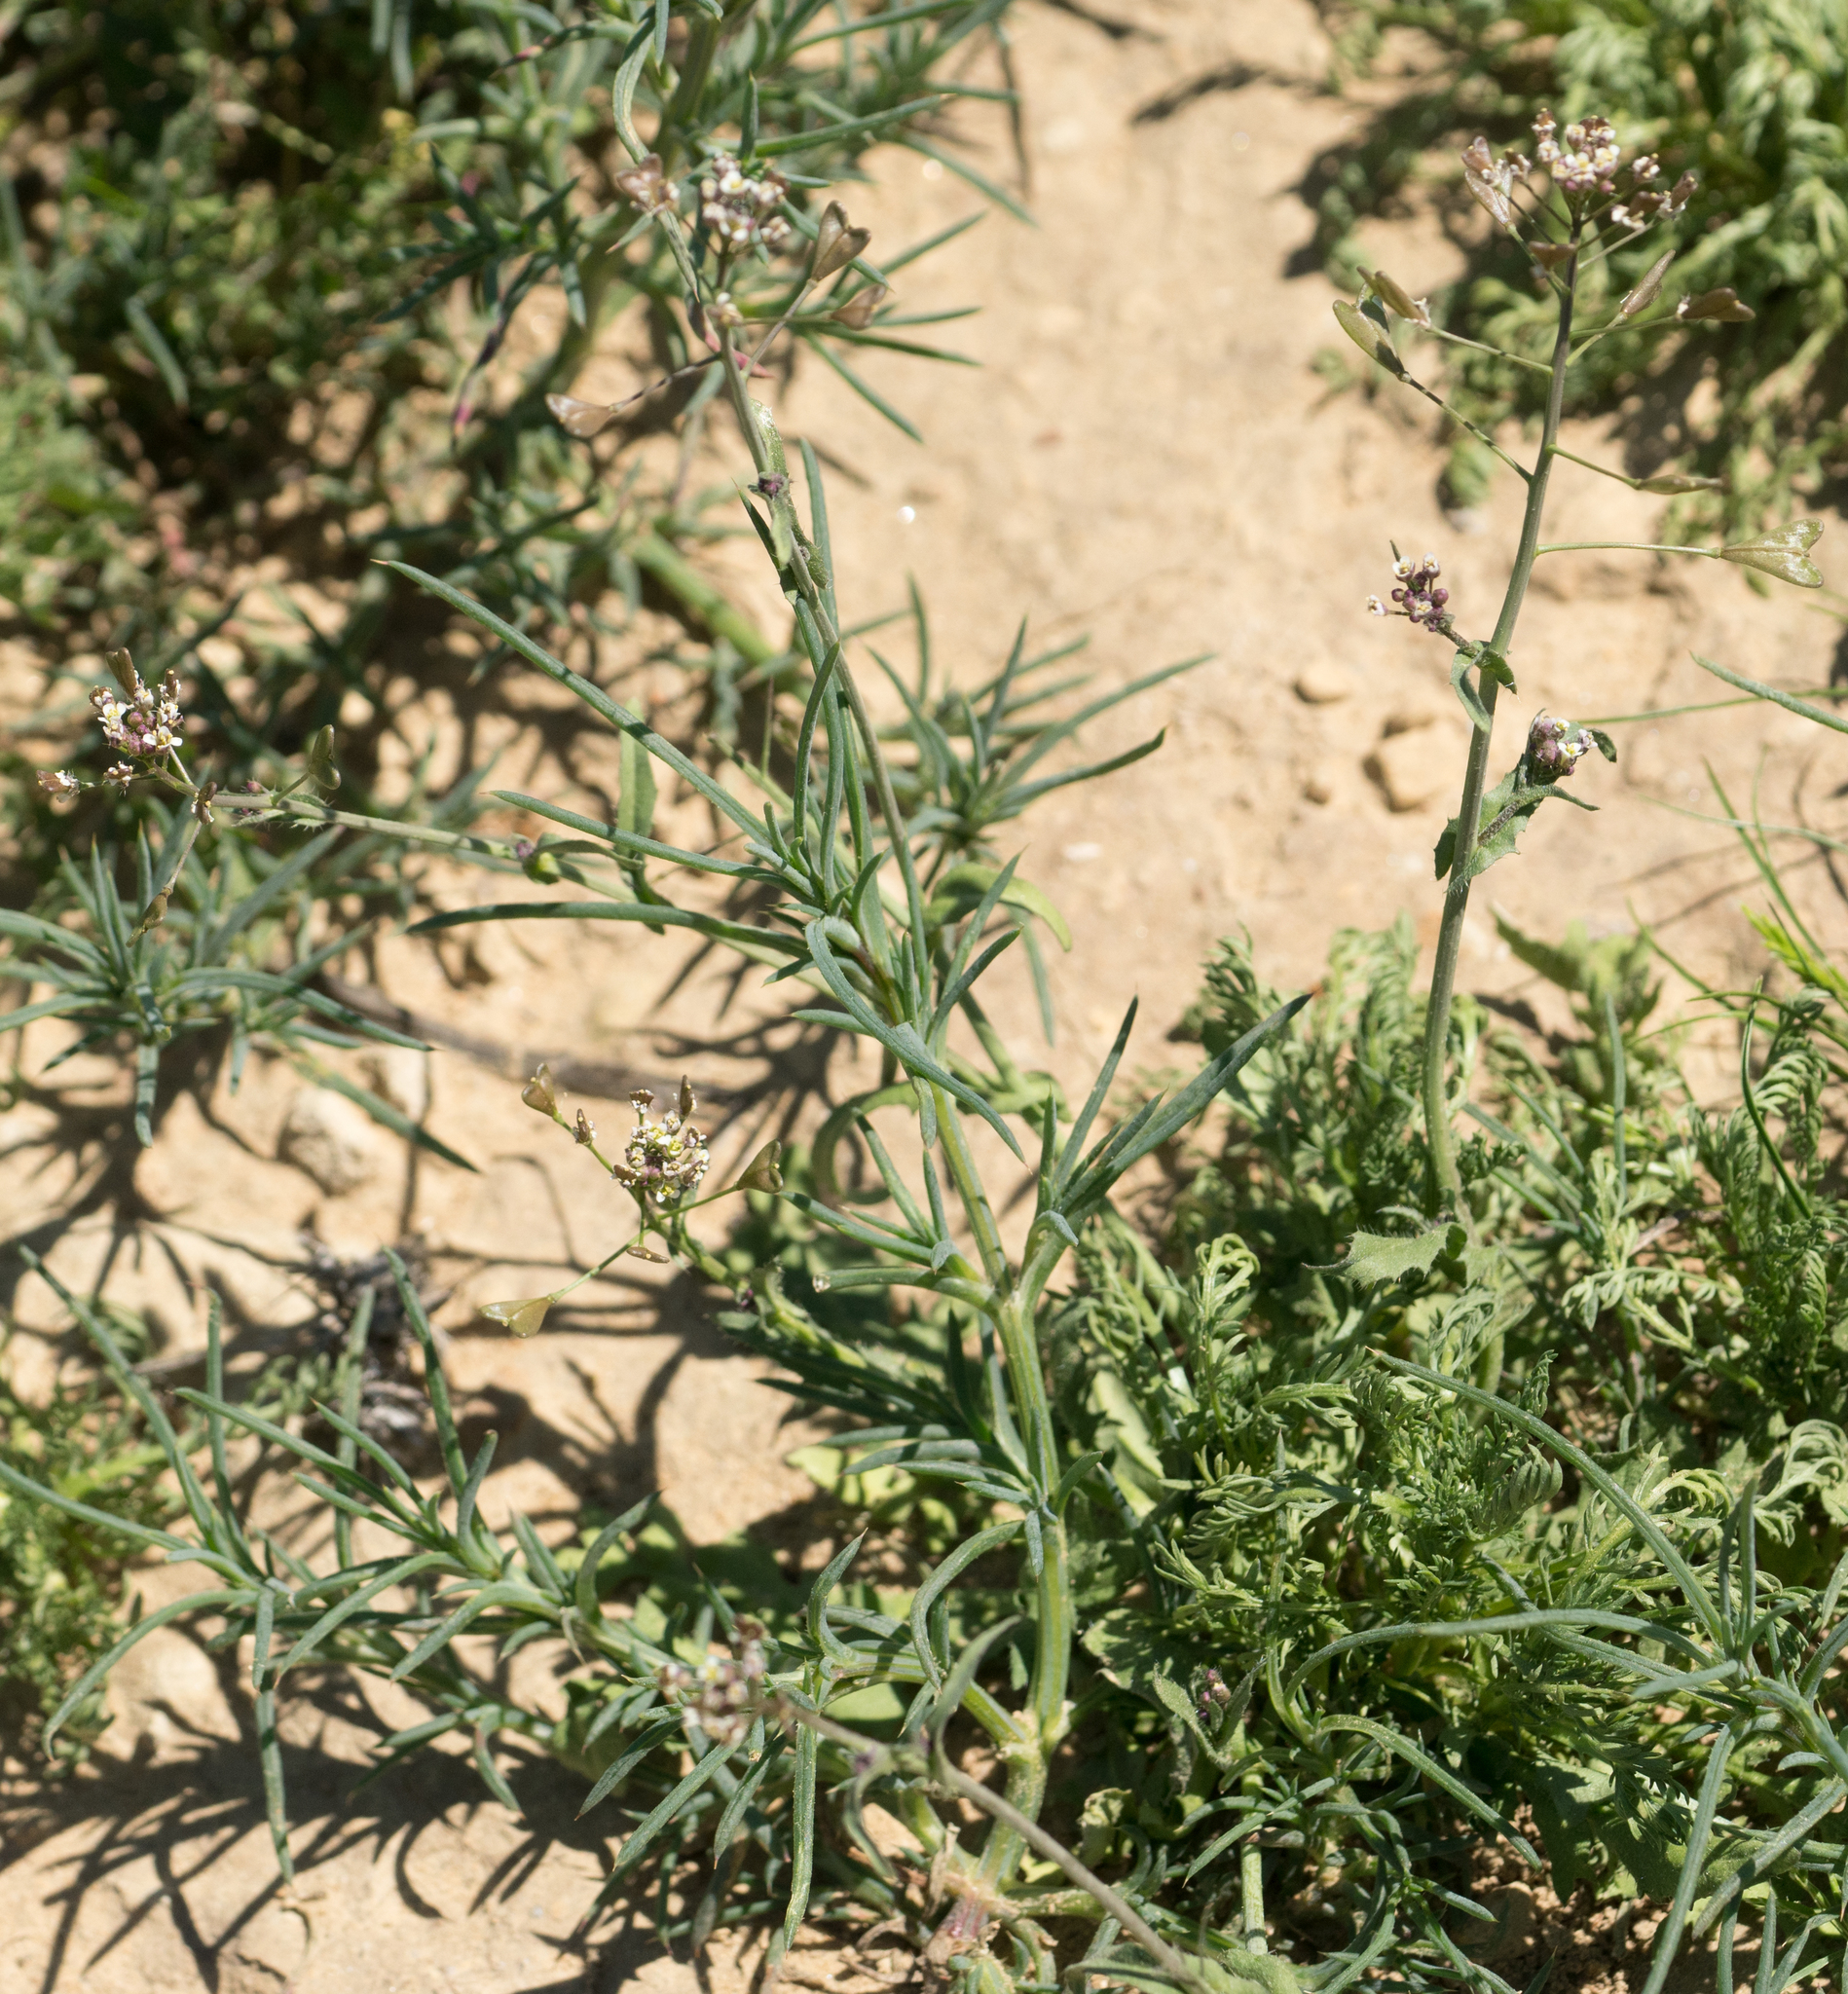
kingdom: Plantae
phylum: Tracheophyta
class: Magnoliopsida
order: Brassicales
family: Brassicaceae
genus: Capsella
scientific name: Capsella bursa-pastoris
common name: Shepherd's purse
